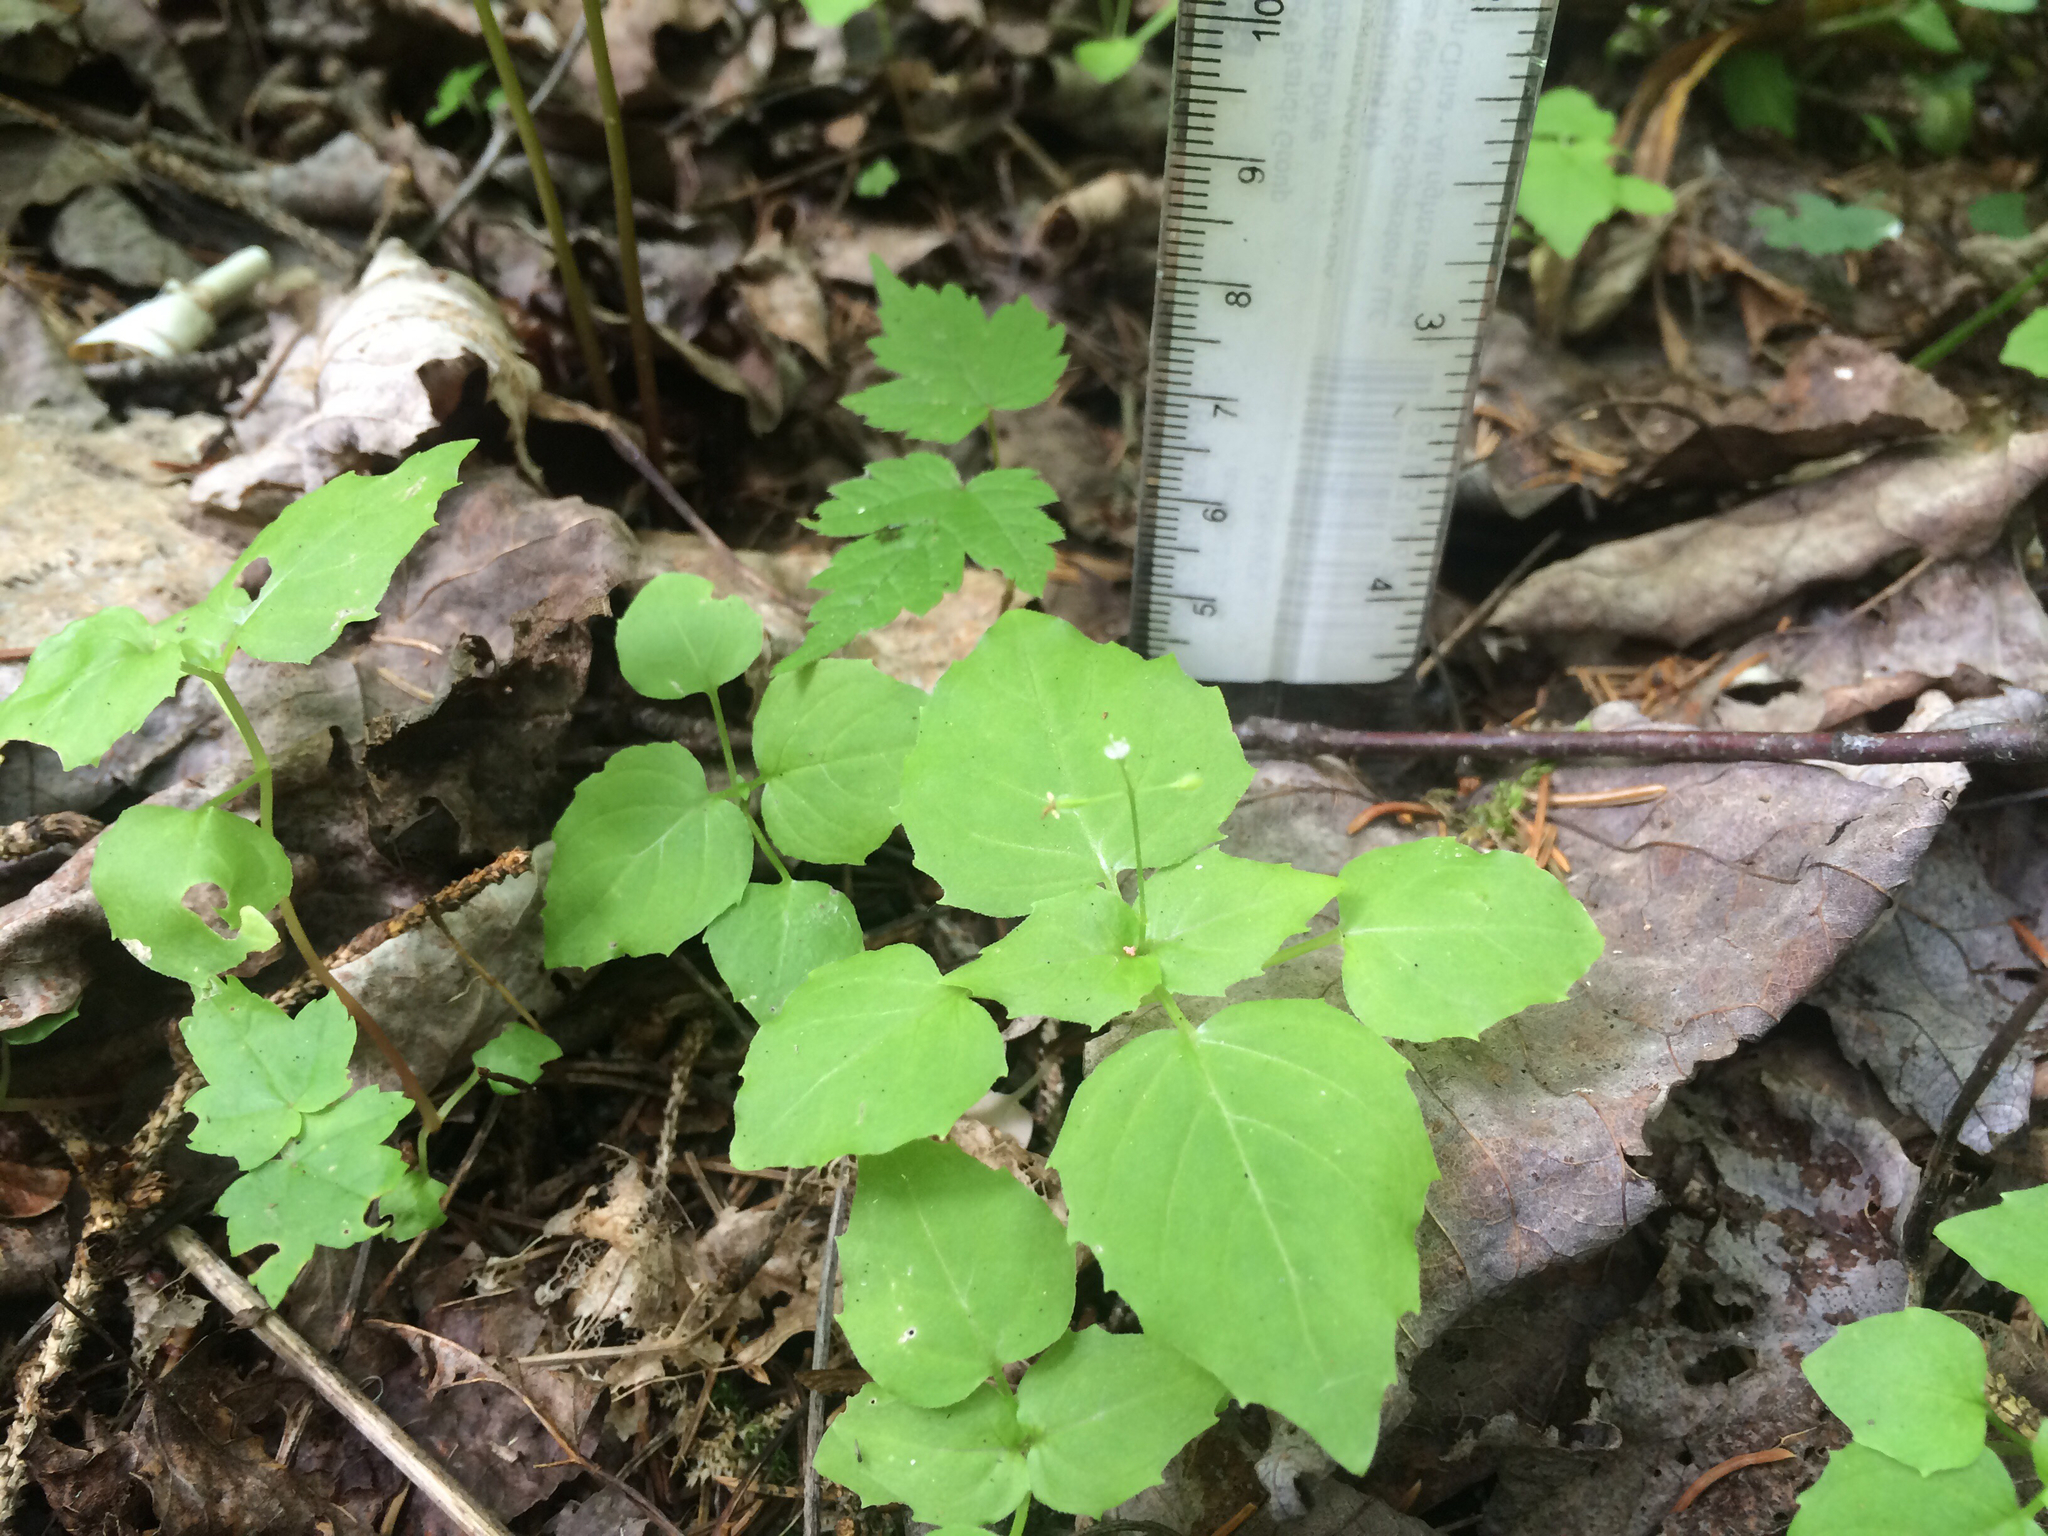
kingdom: Plantae
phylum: Tracheophyta
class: Magnoliopsida
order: Myrtales
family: Onagraceae
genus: Circaea
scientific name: Circaea alpina
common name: Alpine enchanter's-nightshade
